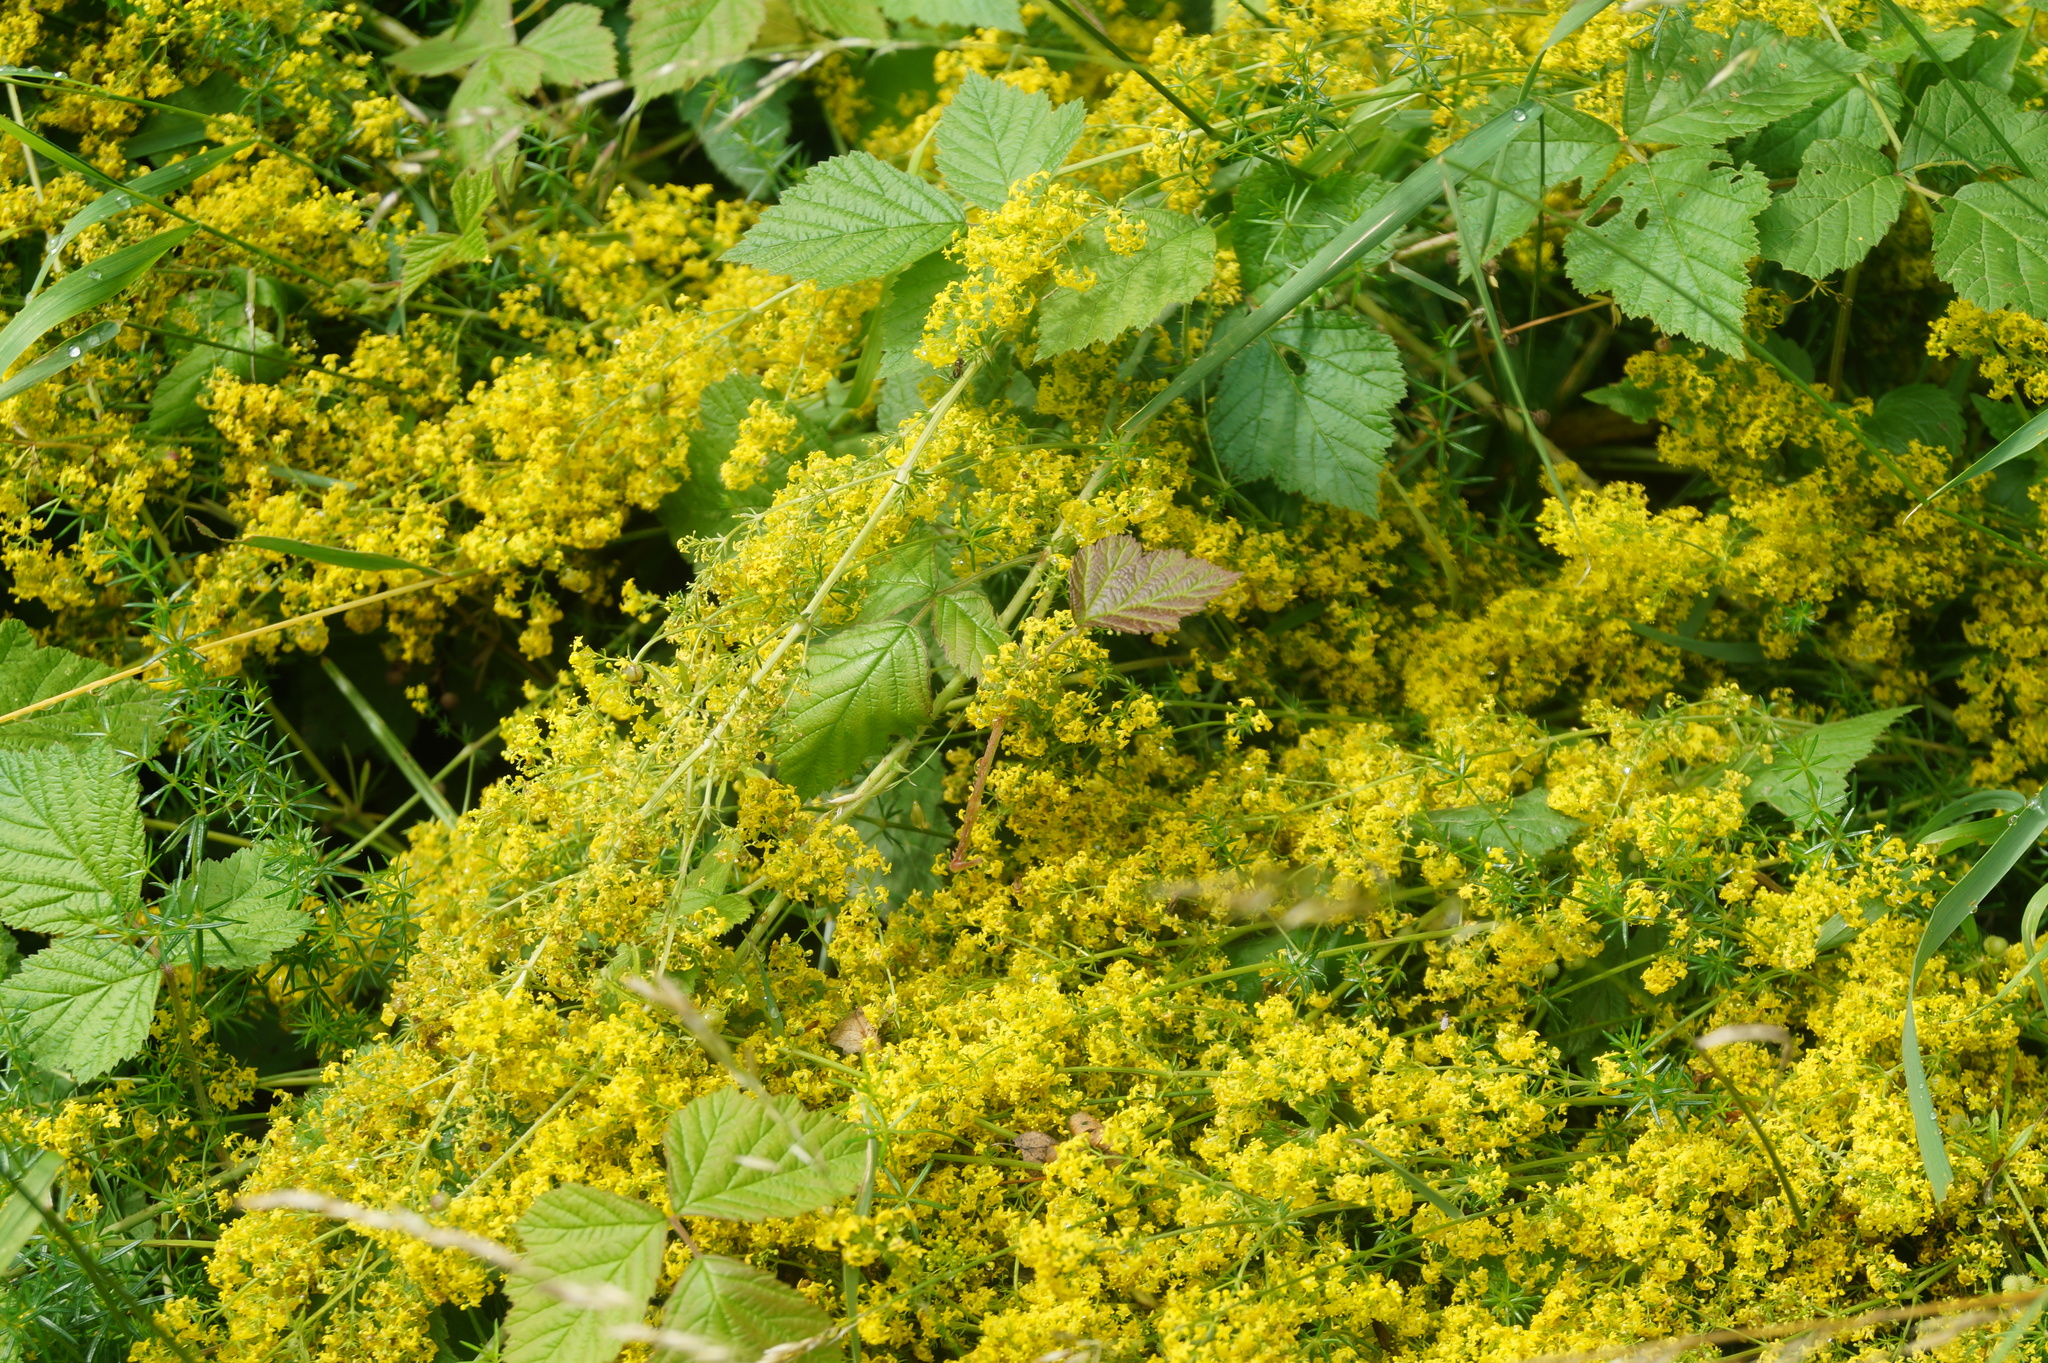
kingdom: Plantae
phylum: Tracheophyta
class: Magnoliopsida
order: Gentianales
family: Rubiaceae
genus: Galium
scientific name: Galium verum
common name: Lady's bedstraw
